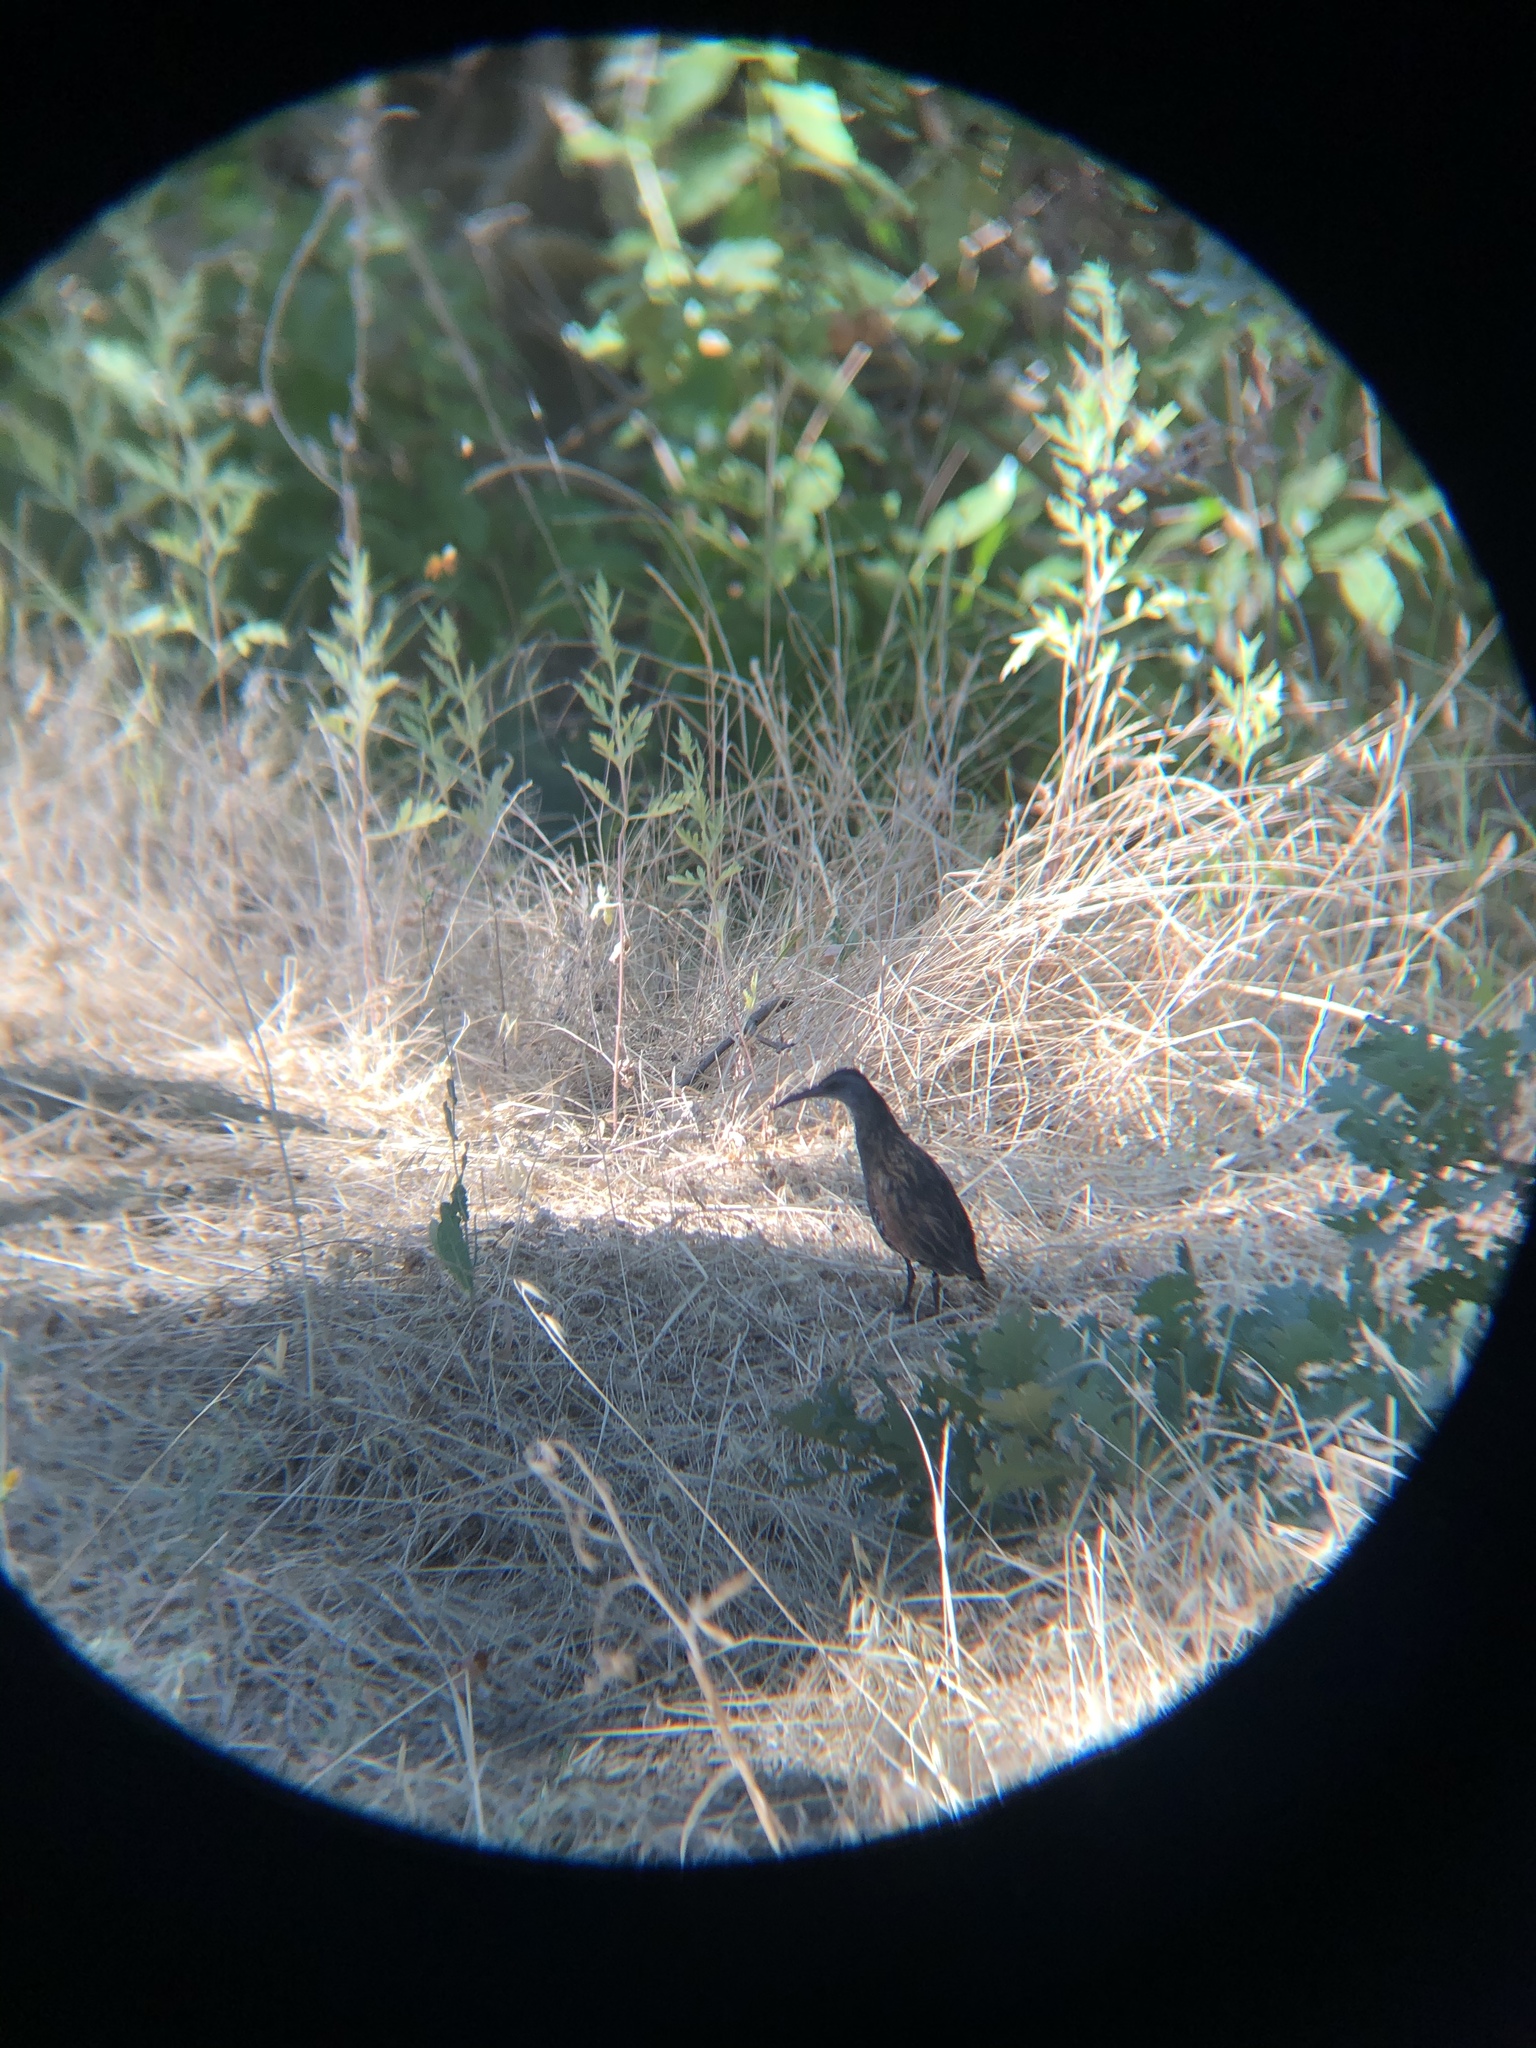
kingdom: Animalia
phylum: Chordata
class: Aves
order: Gruiformes
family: Rallidae
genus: Rallus
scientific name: Rallus limicola
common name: Virginia rail
